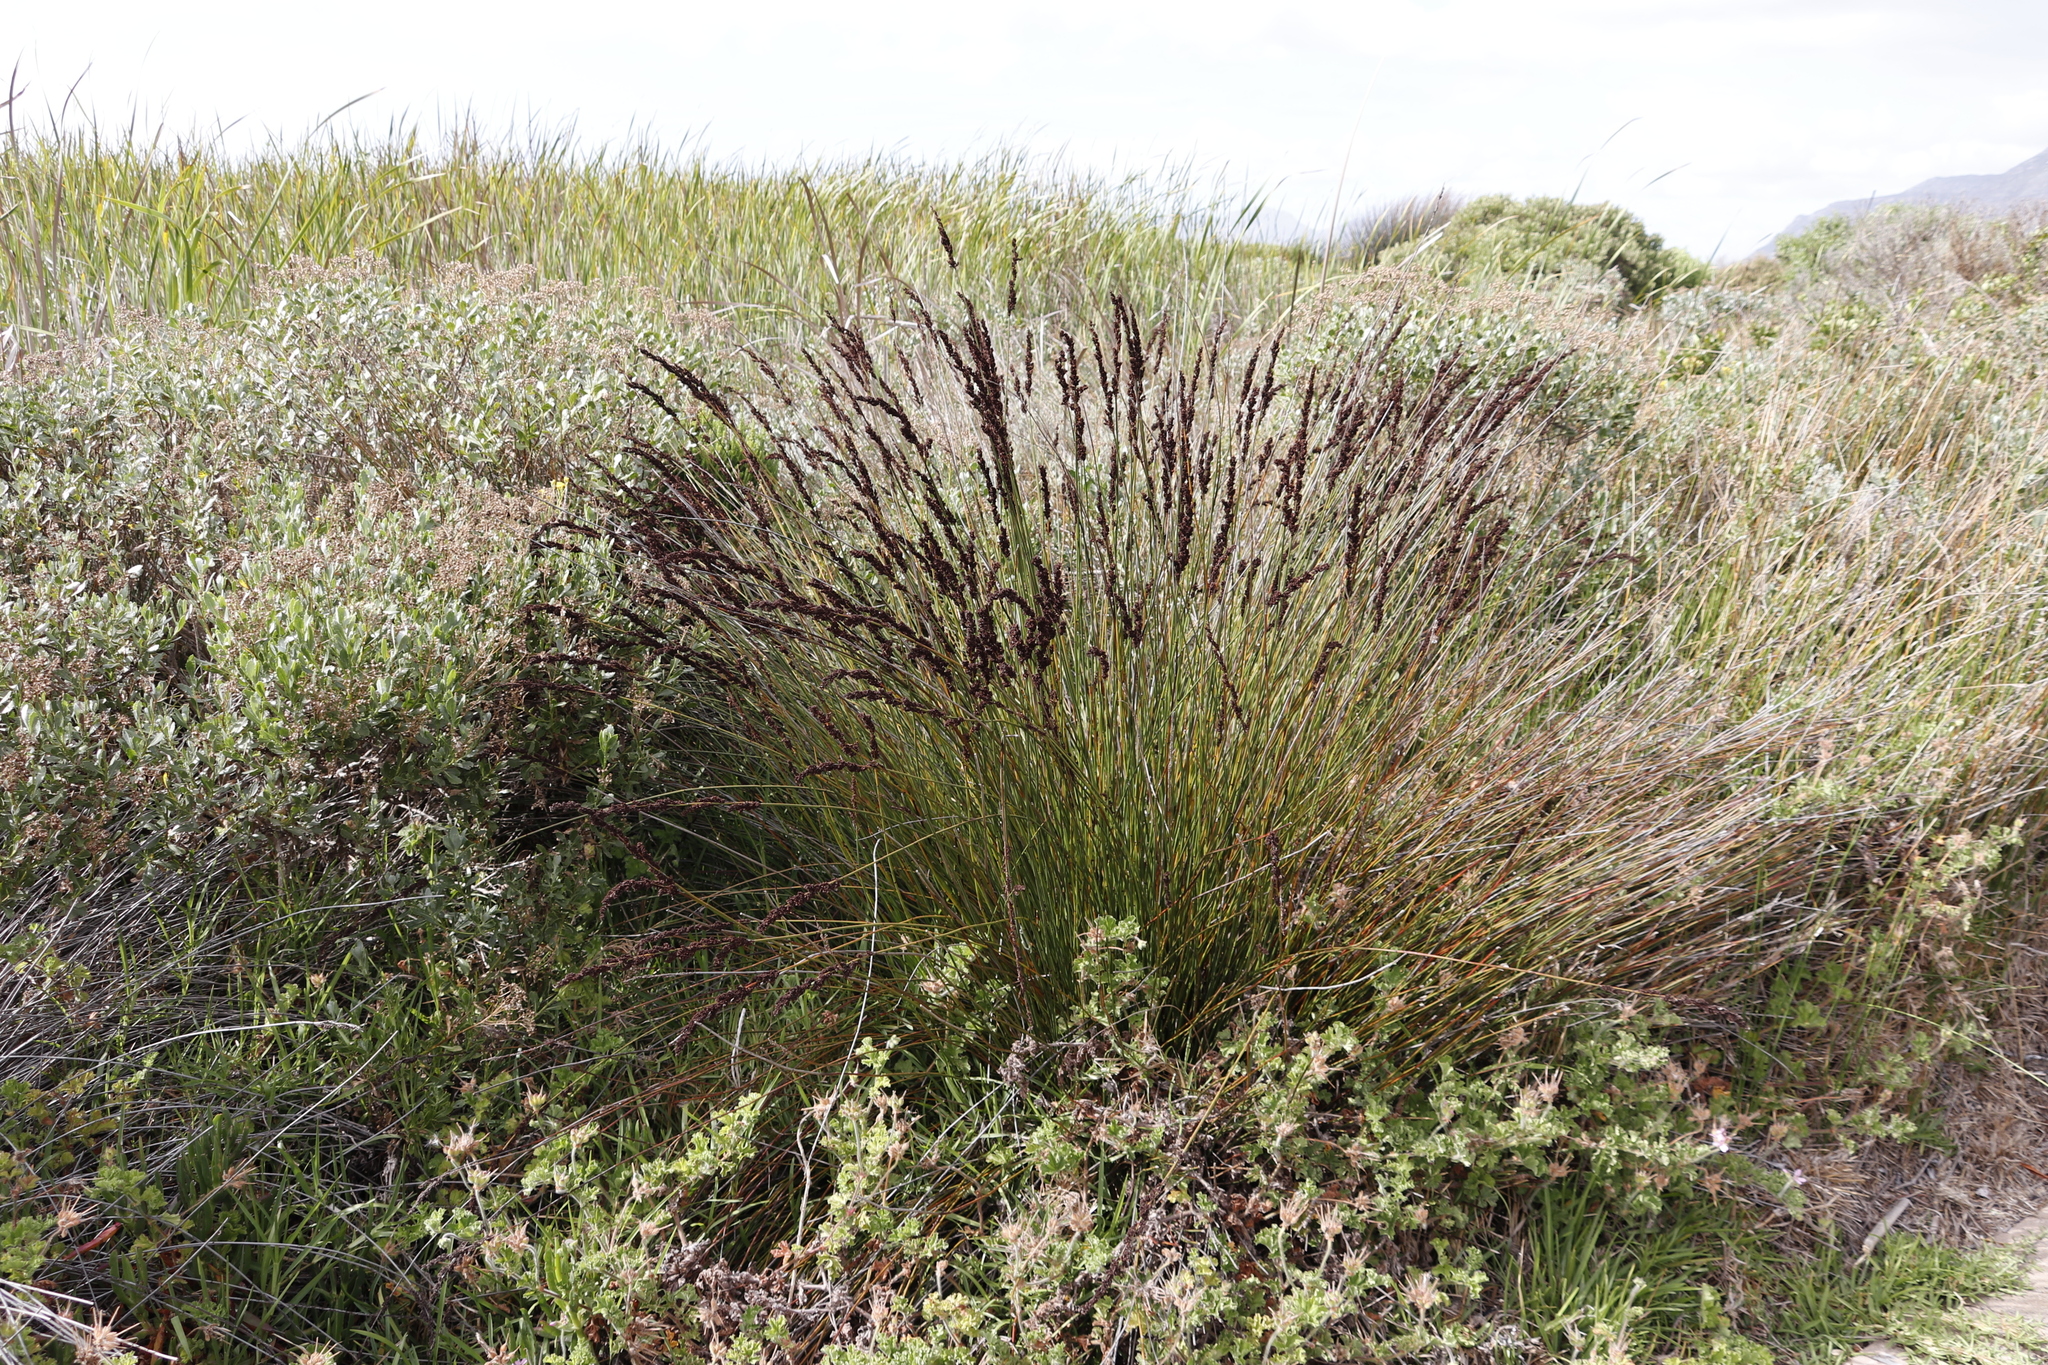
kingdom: Plantae
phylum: Tracheophyta
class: Liliopsida
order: Poales
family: Restionaceae
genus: Elegia
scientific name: Elegia tectorum
